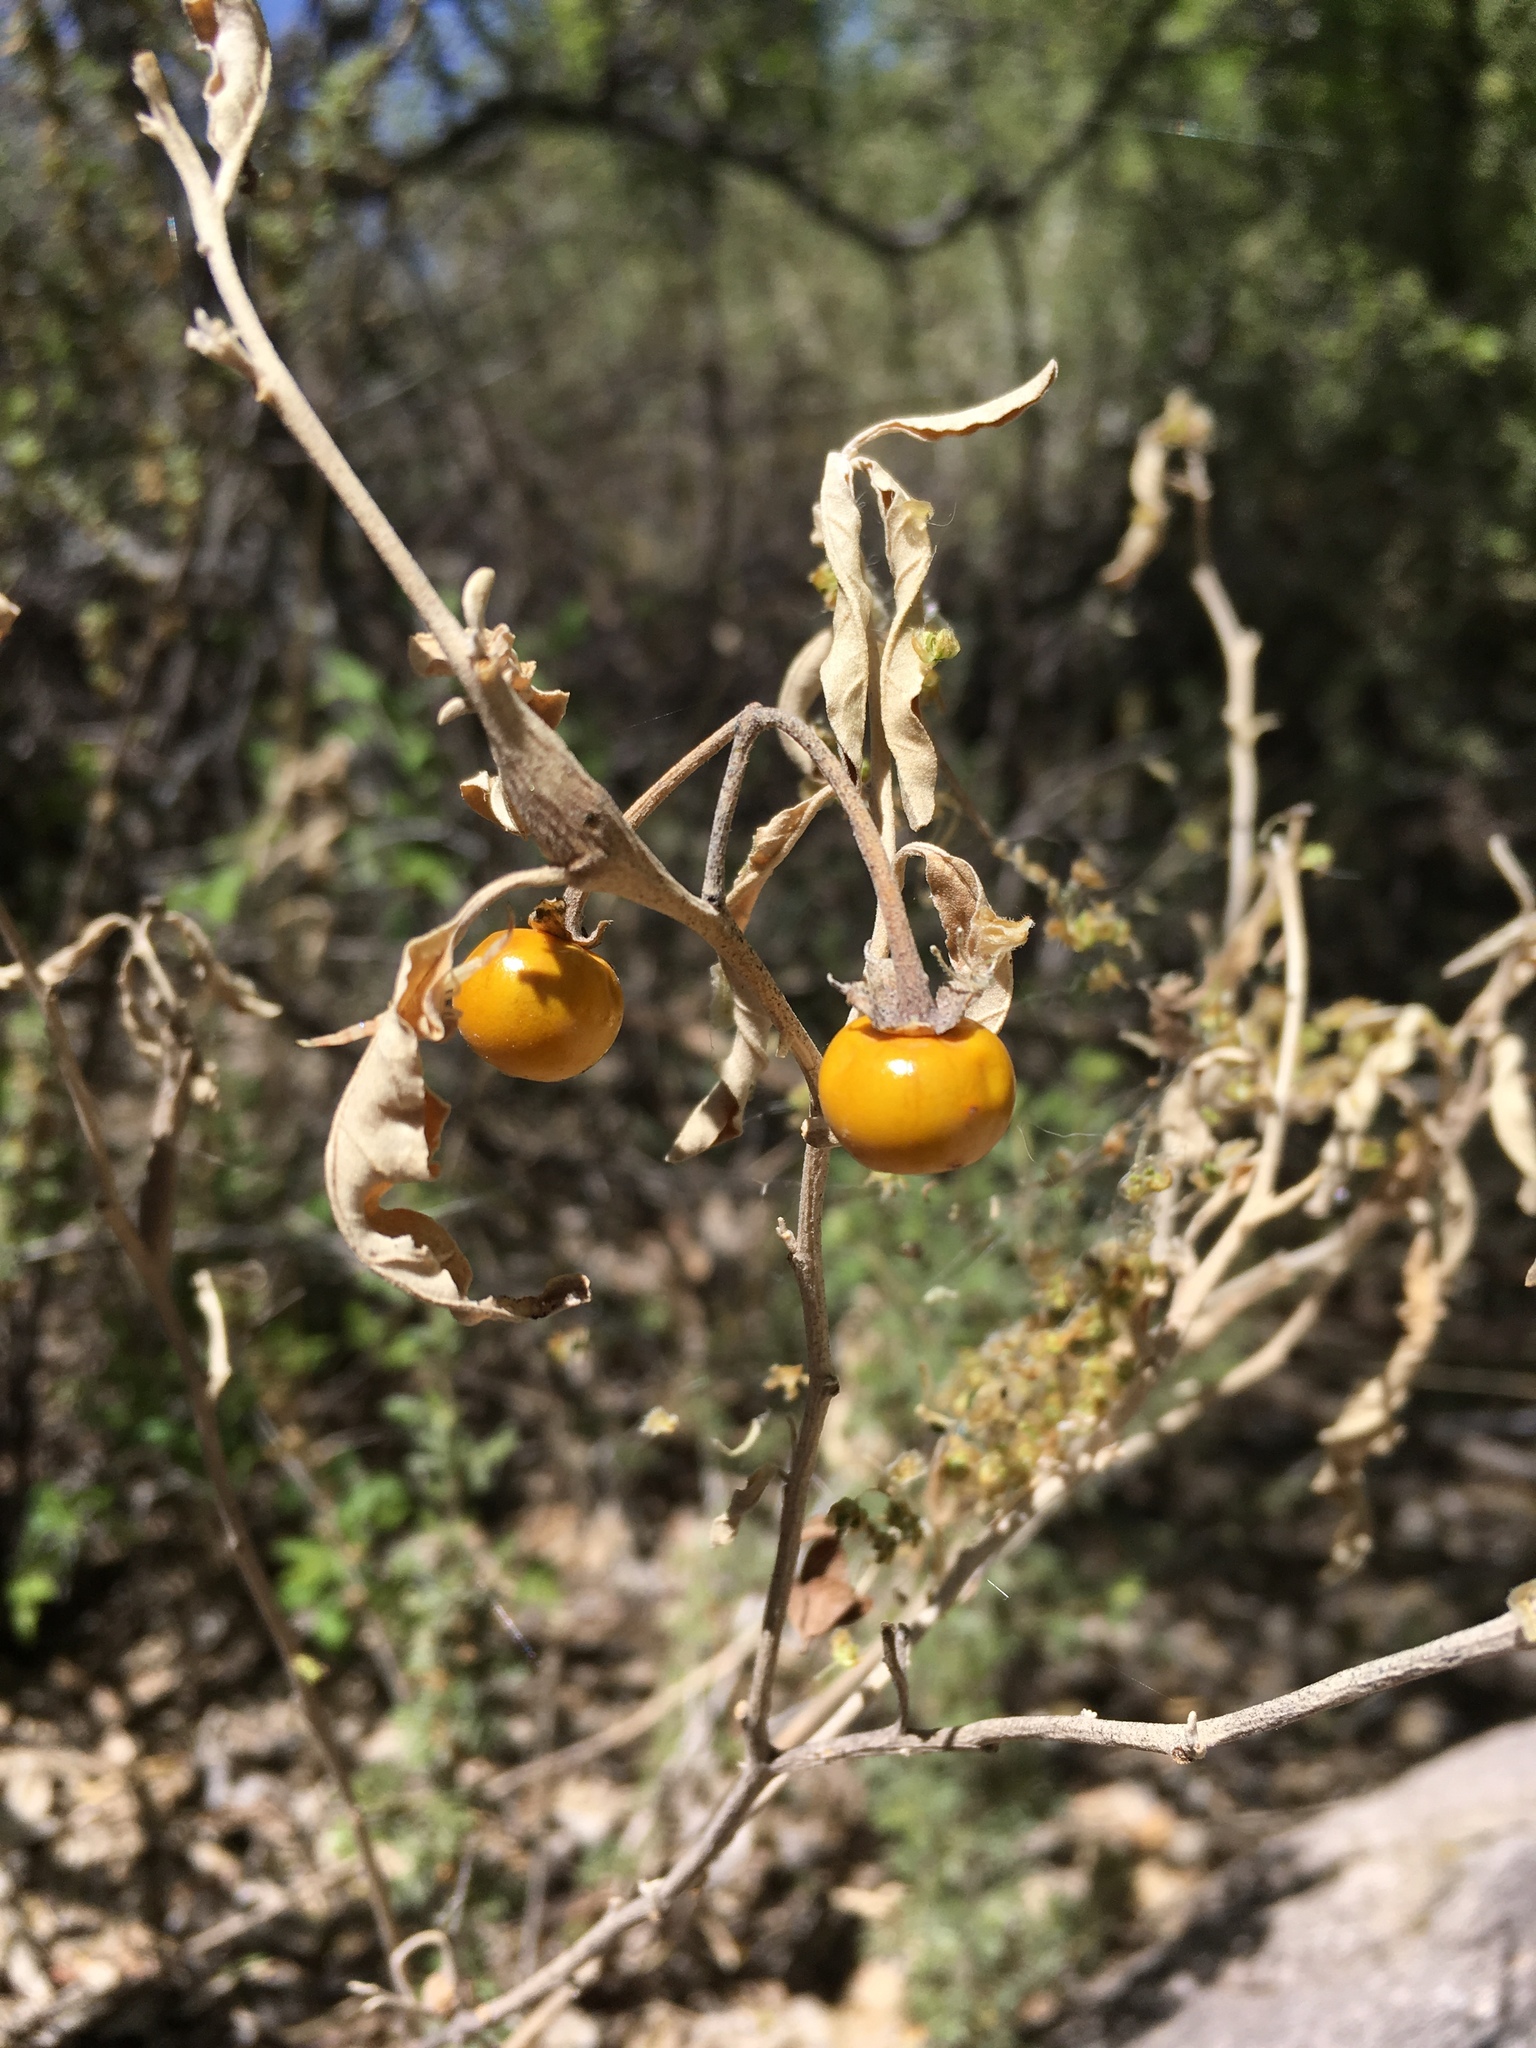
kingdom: Plantae
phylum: Tracheophyta
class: Magnoliopsida
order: Solanales
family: Solanaceae
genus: Solanum
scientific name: Solanum elaeagnifolium
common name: Silverleaf nightshade
